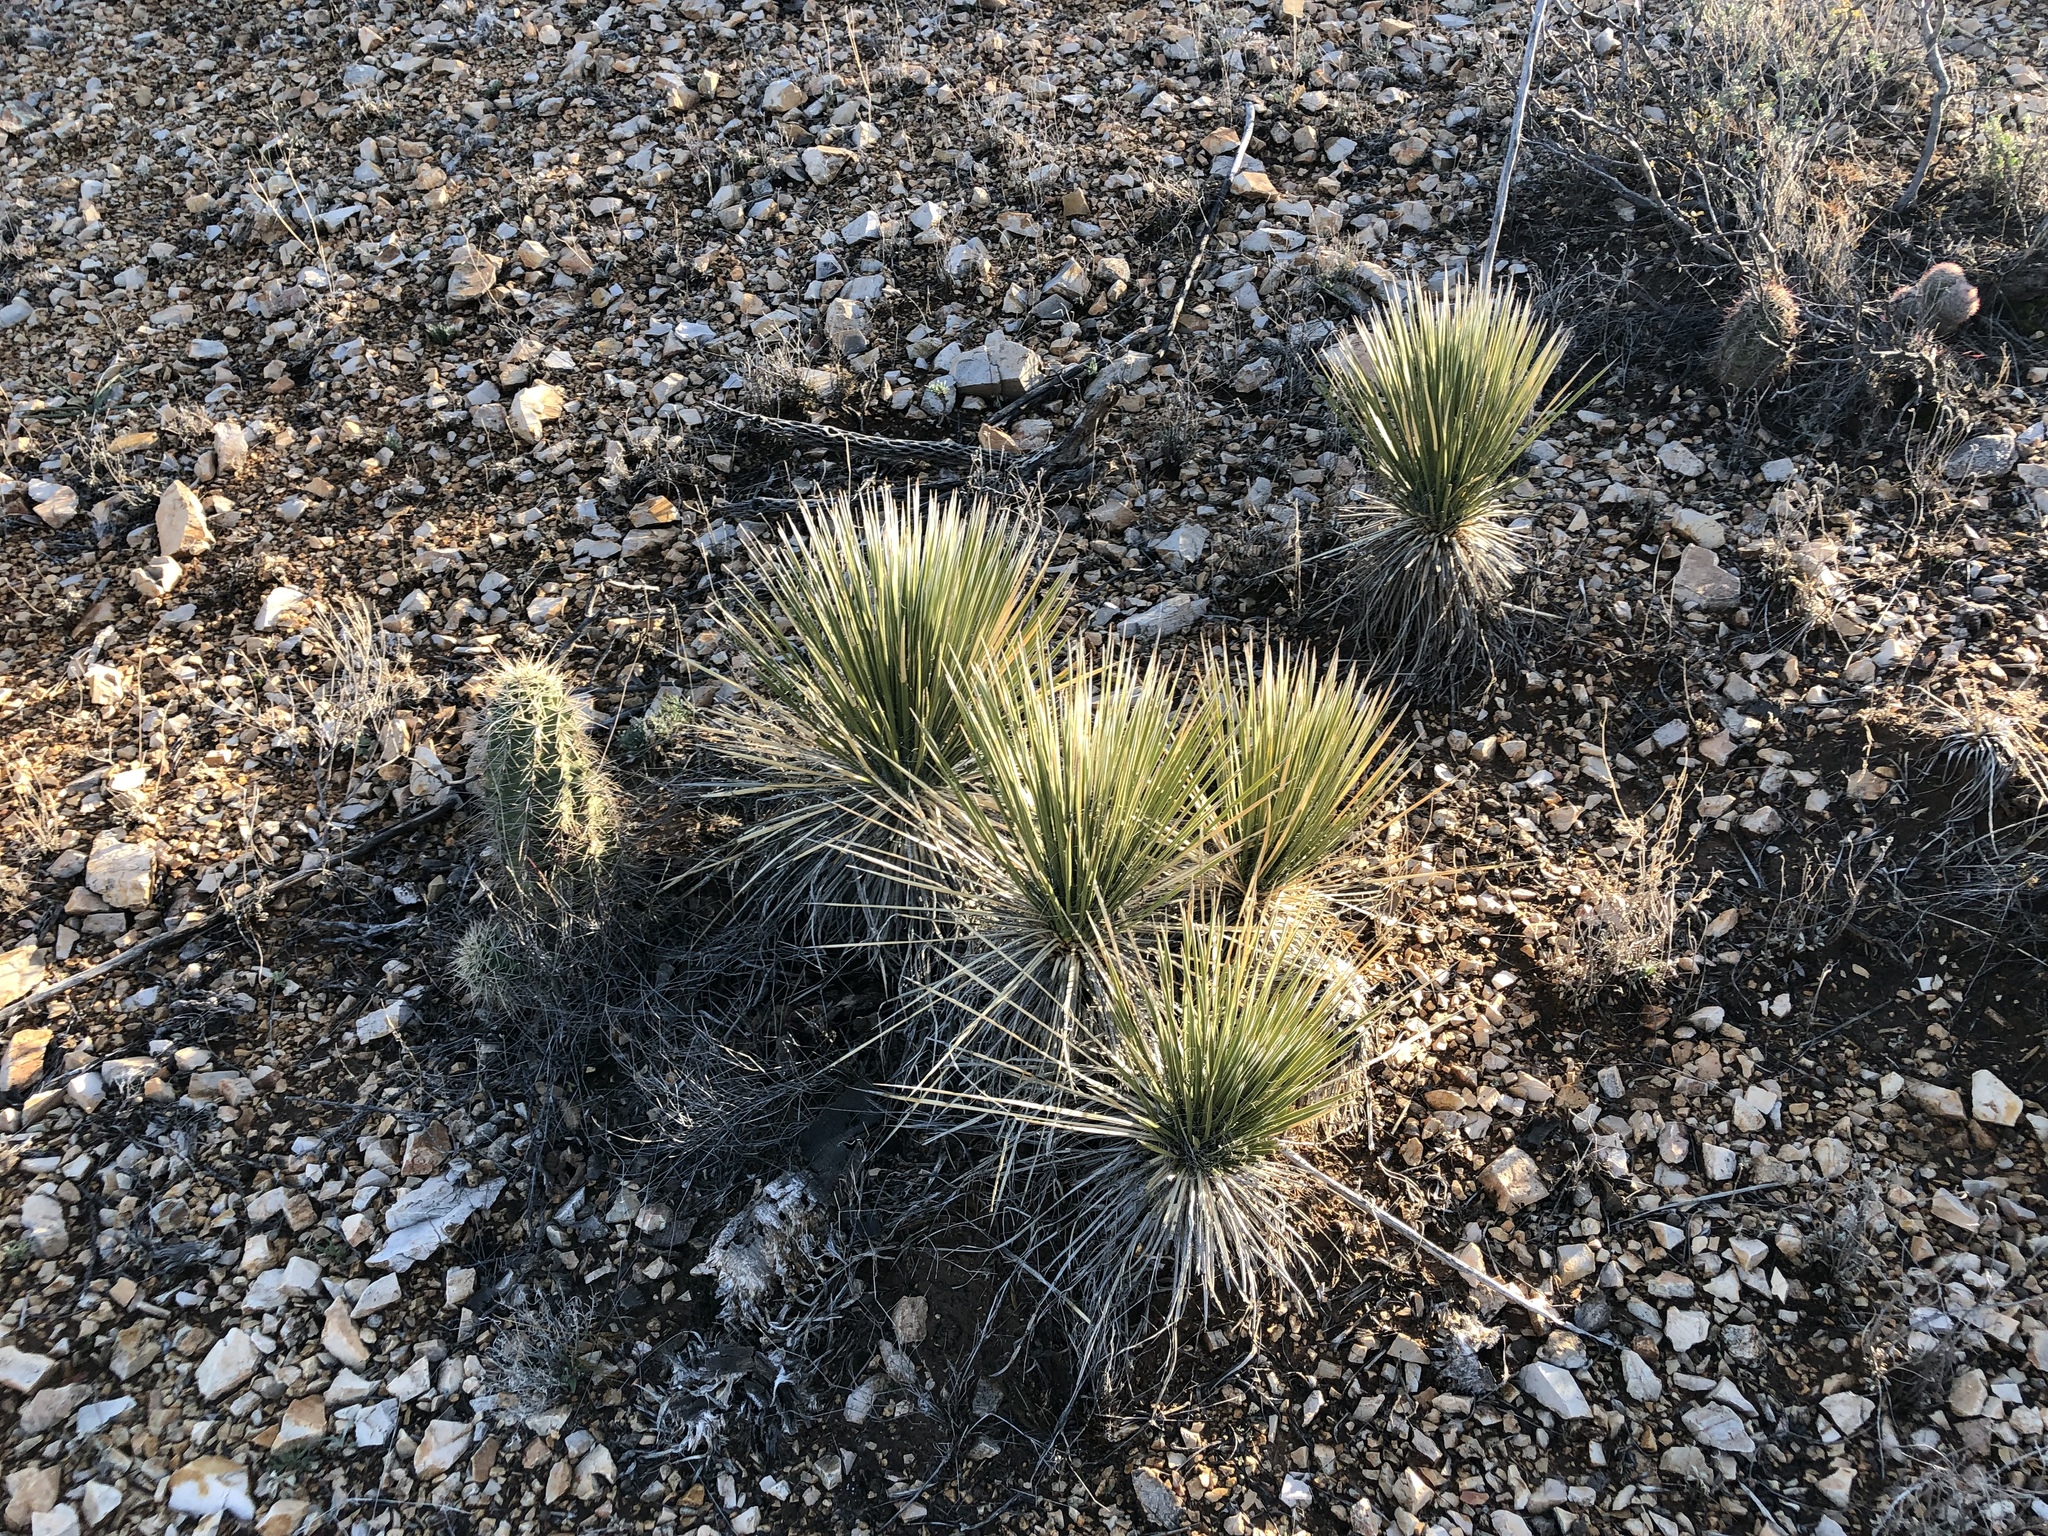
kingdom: Plantae
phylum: Tracheophyta
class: Liliopsida
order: Asparagales
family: Asparagaceae
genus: Yucca
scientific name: Yucca elata
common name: Palmella
